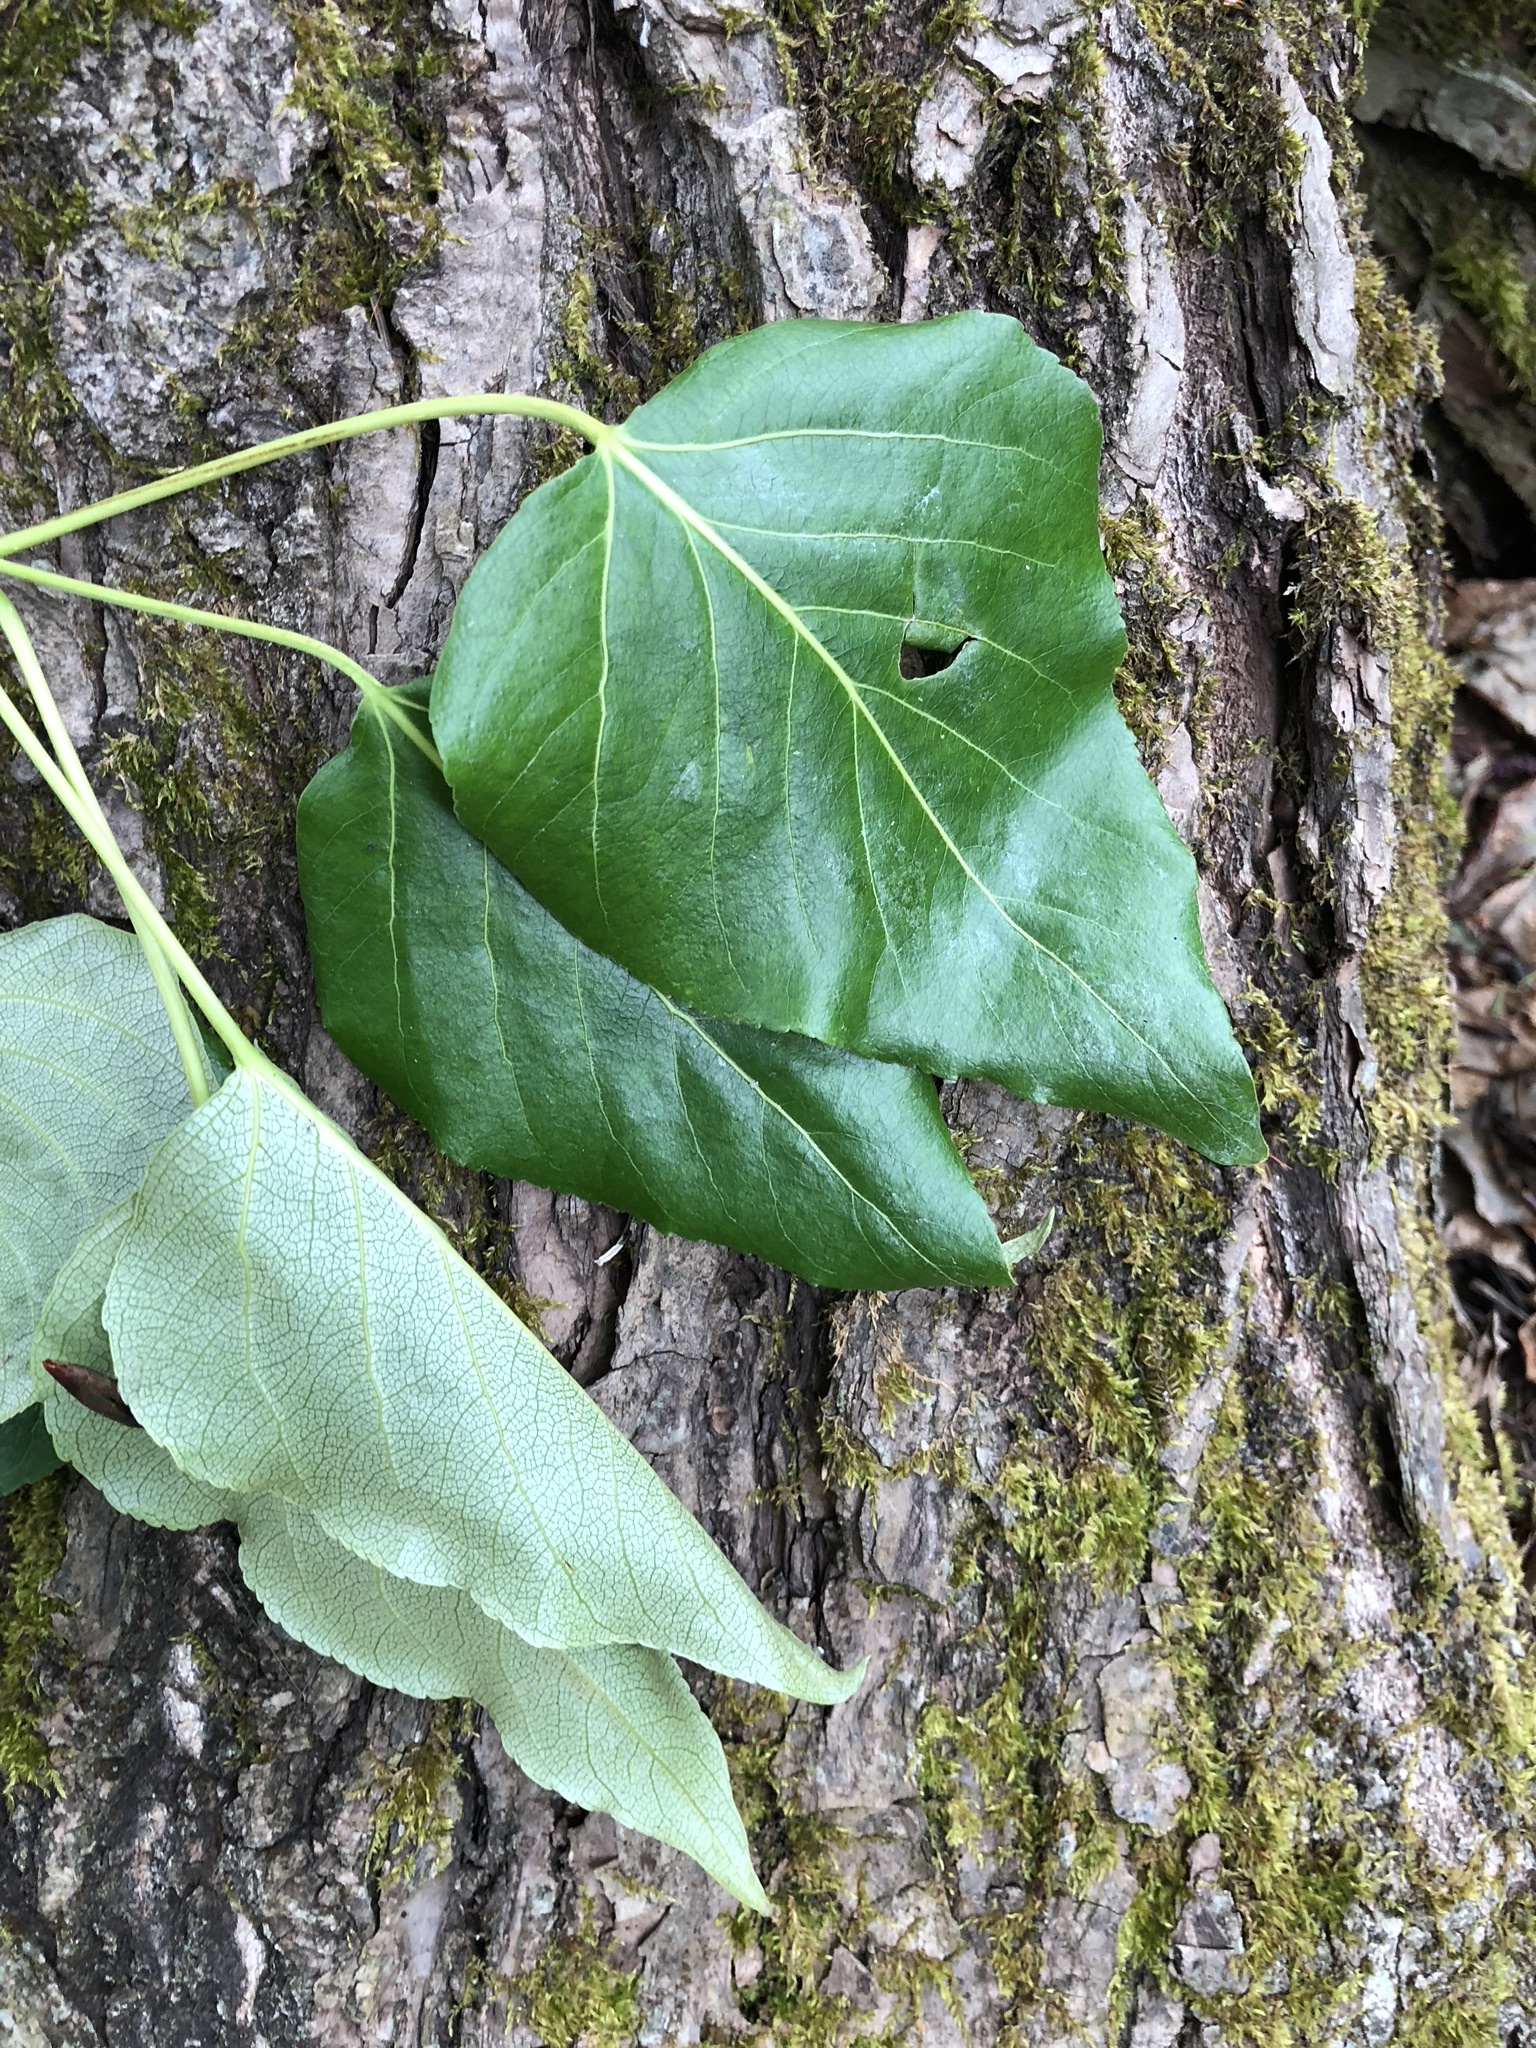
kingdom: Plantae
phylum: Tracheophyta
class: Magnoliopsida
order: Malpighiales
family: Salicaceae
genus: Populus
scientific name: Populus trichocarpa
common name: Black cottonwood
